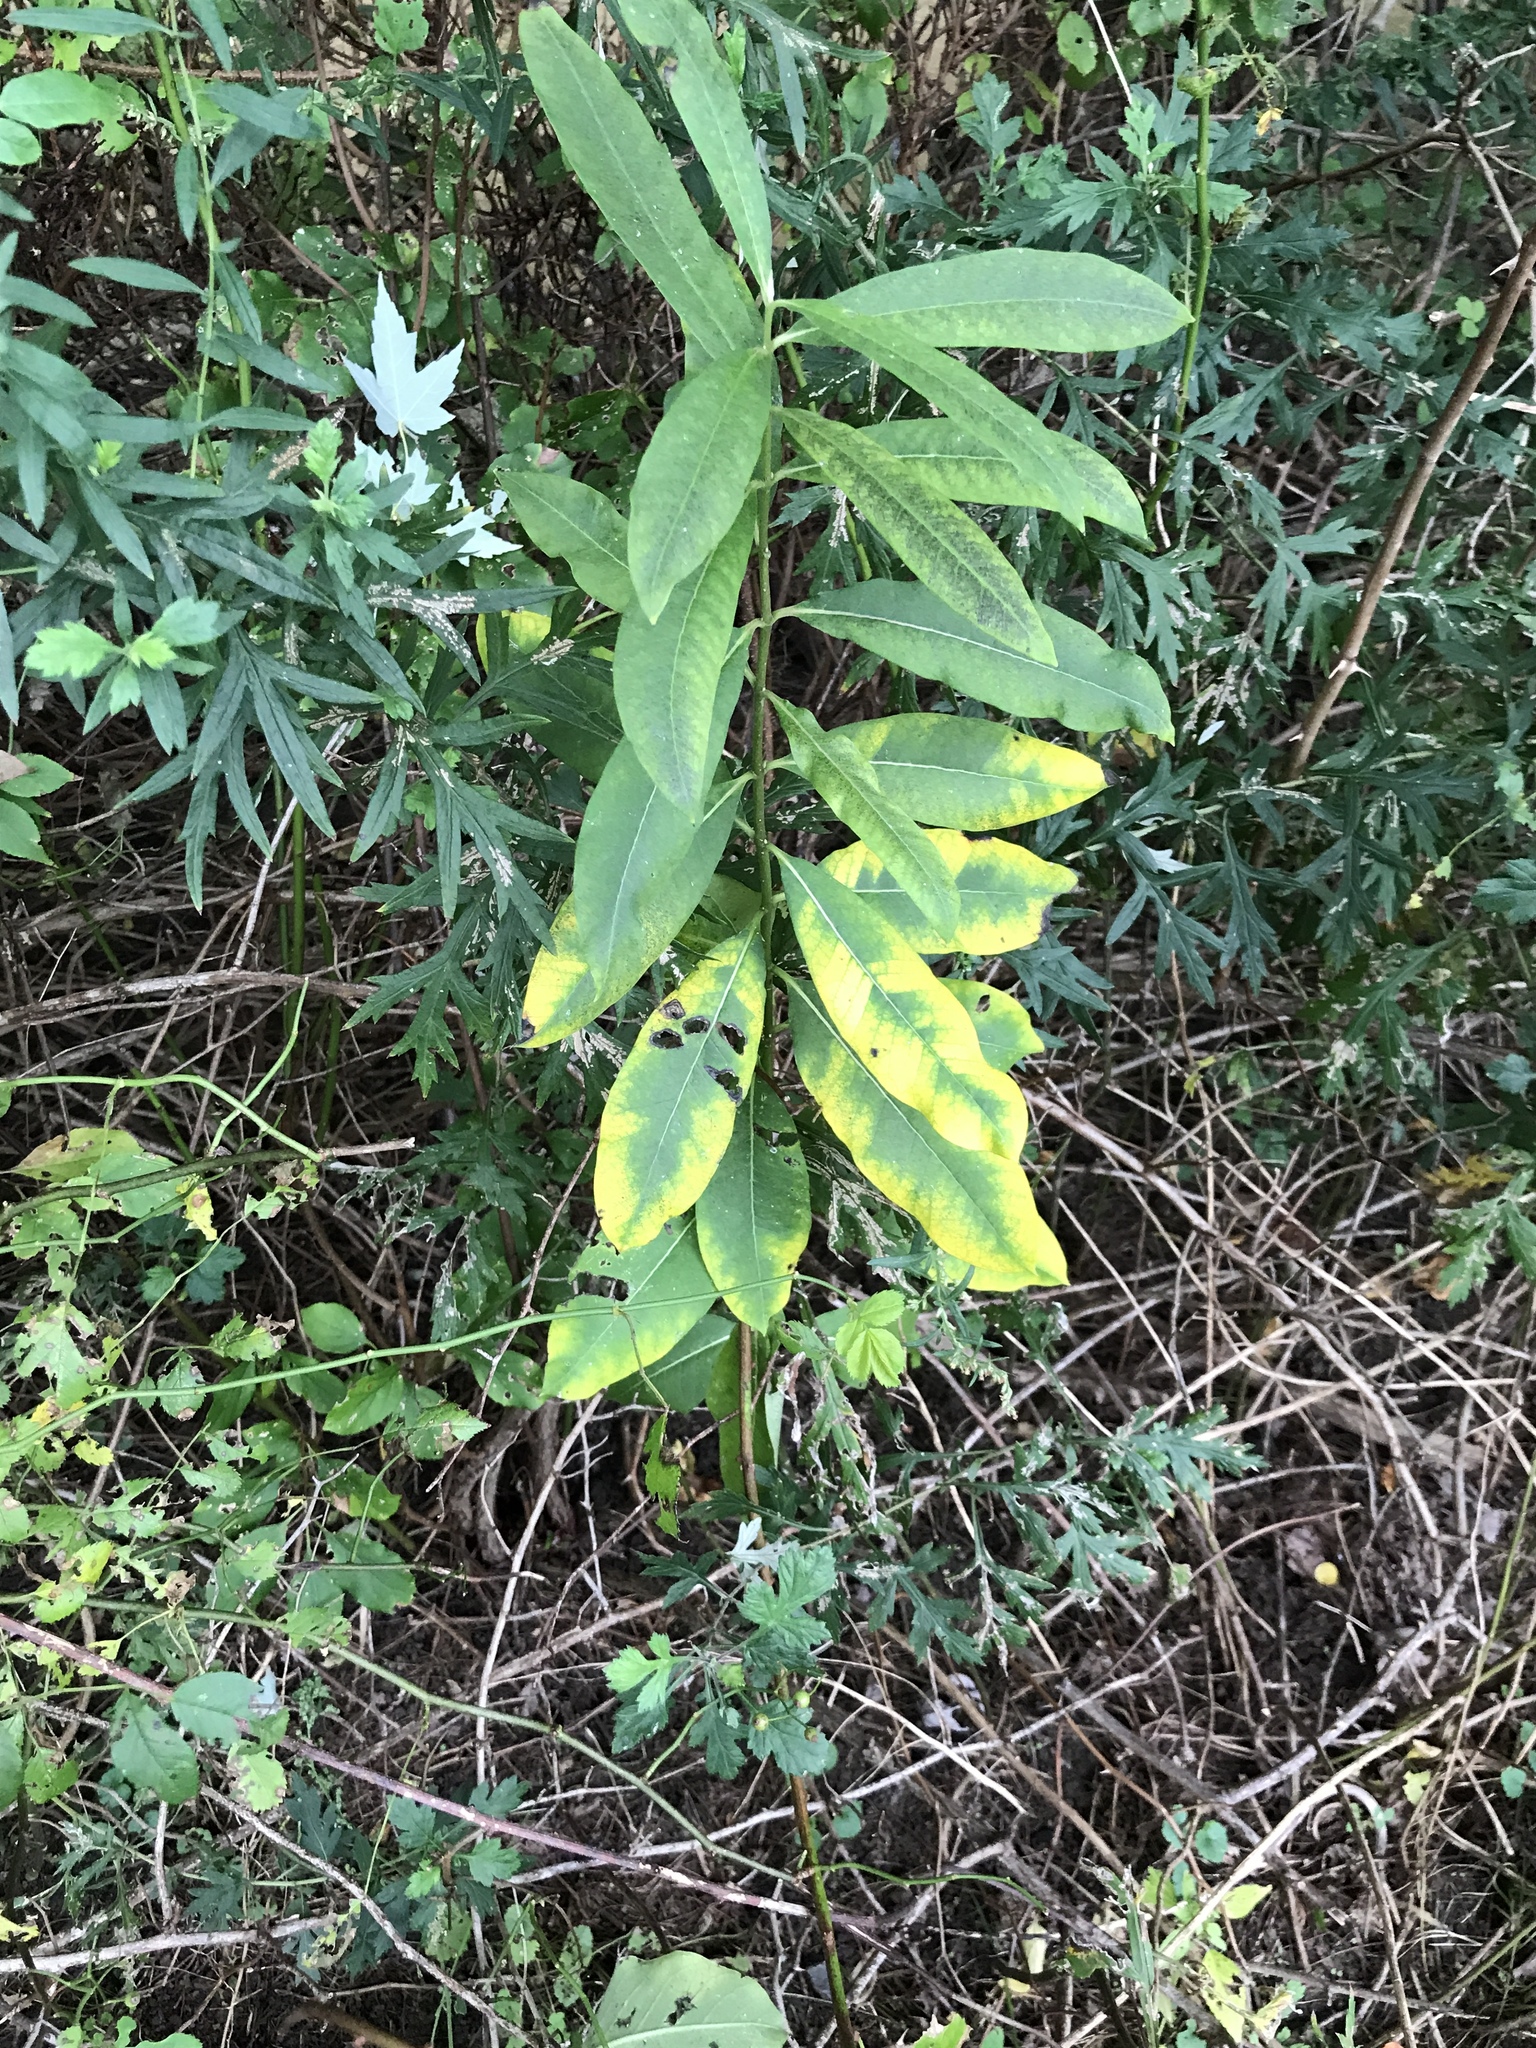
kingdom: Plantae
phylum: Tracheophyta
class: Magnoliopsida
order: Gentianales
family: Apocynaceae
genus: Asclepias
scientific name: Asclepias syriaca
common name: Common milkweed
